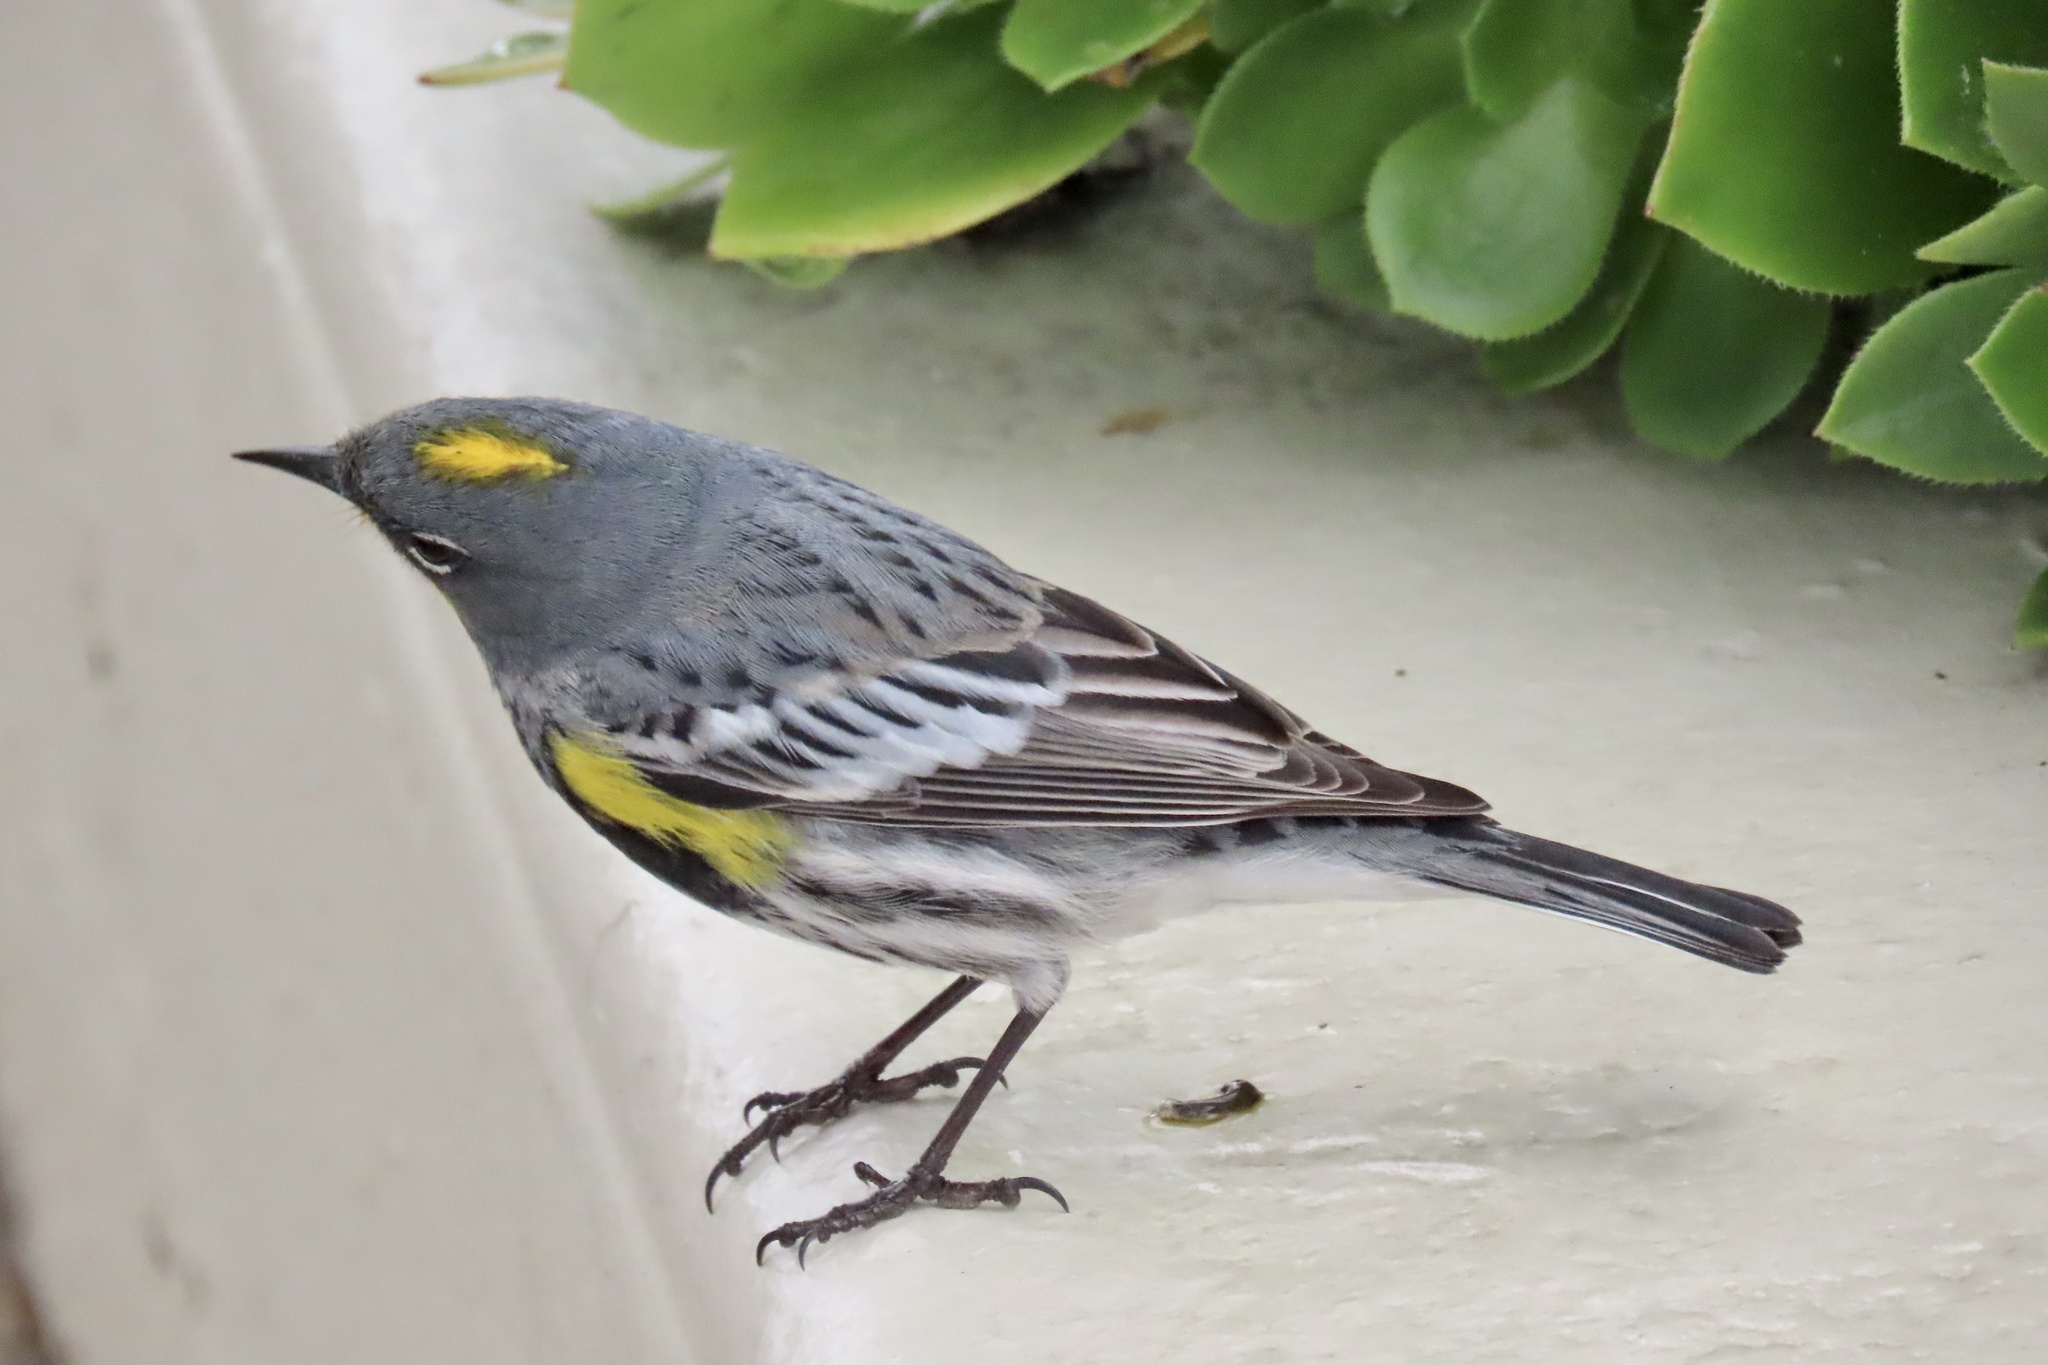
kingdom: Animalia
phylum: Chordata
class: Aves
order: Passeriformes
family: Parulidae
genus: Setophaga
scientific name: Setophaga coronata
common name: Myrtle warbler
